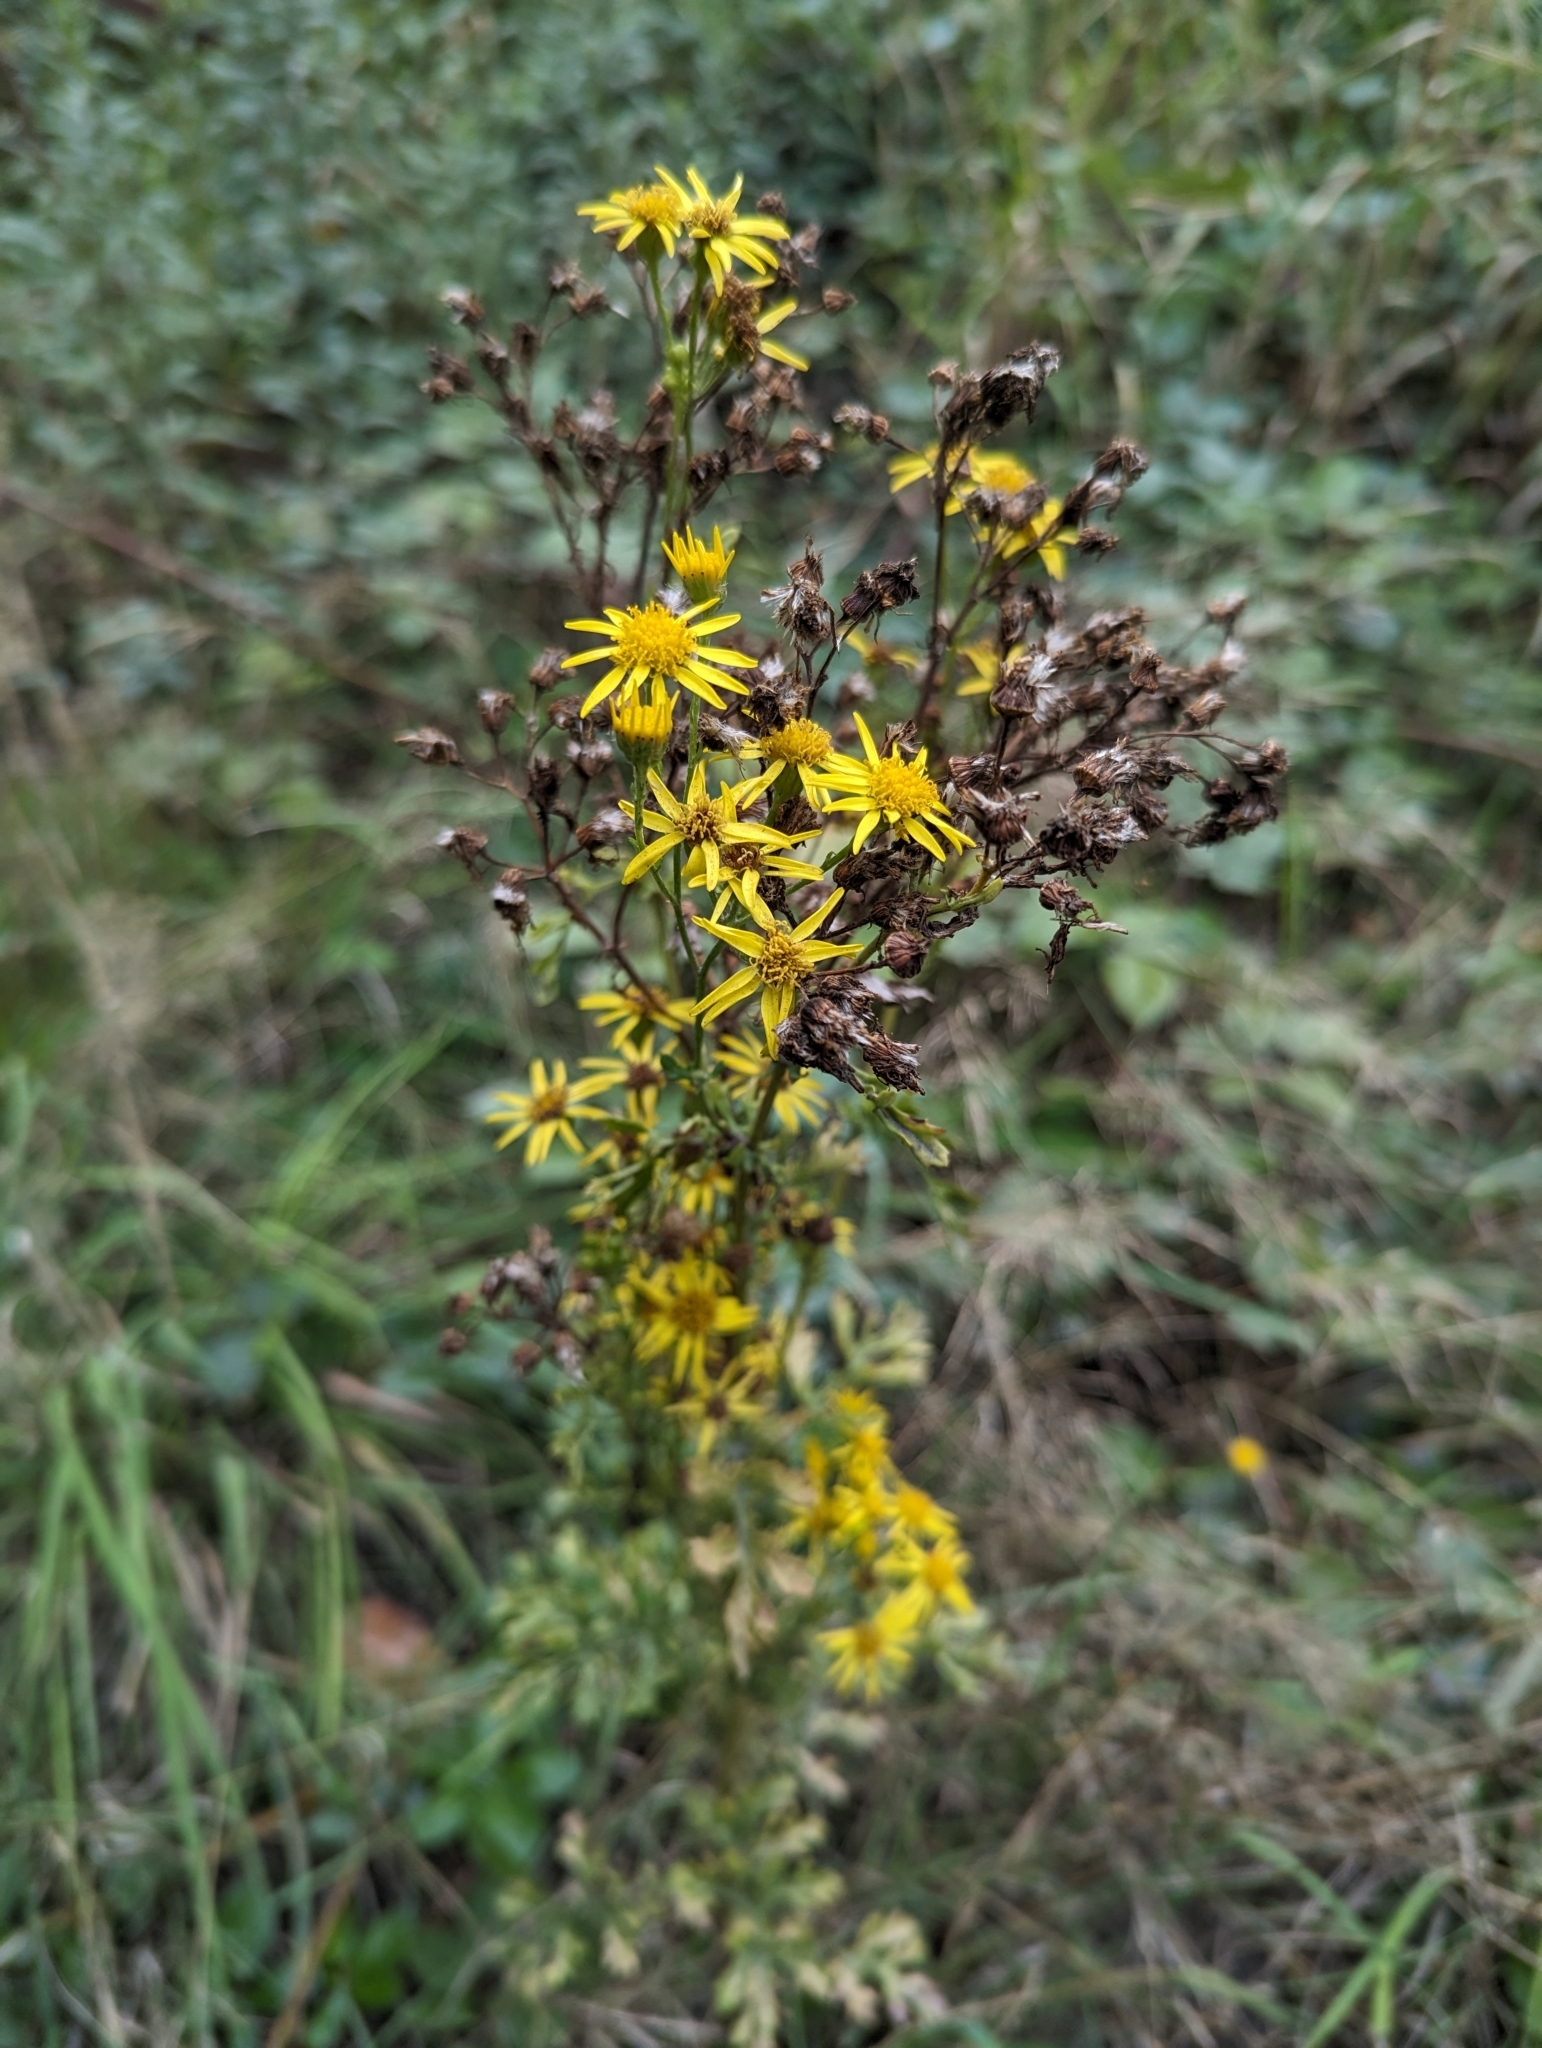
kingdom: Plantae
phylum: Tracheophyta
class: Magnoliopsida
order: Asterales
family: Asteraceae
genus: Jacobaea
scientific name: Jacobaea vulgaris
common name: Stinking willie
